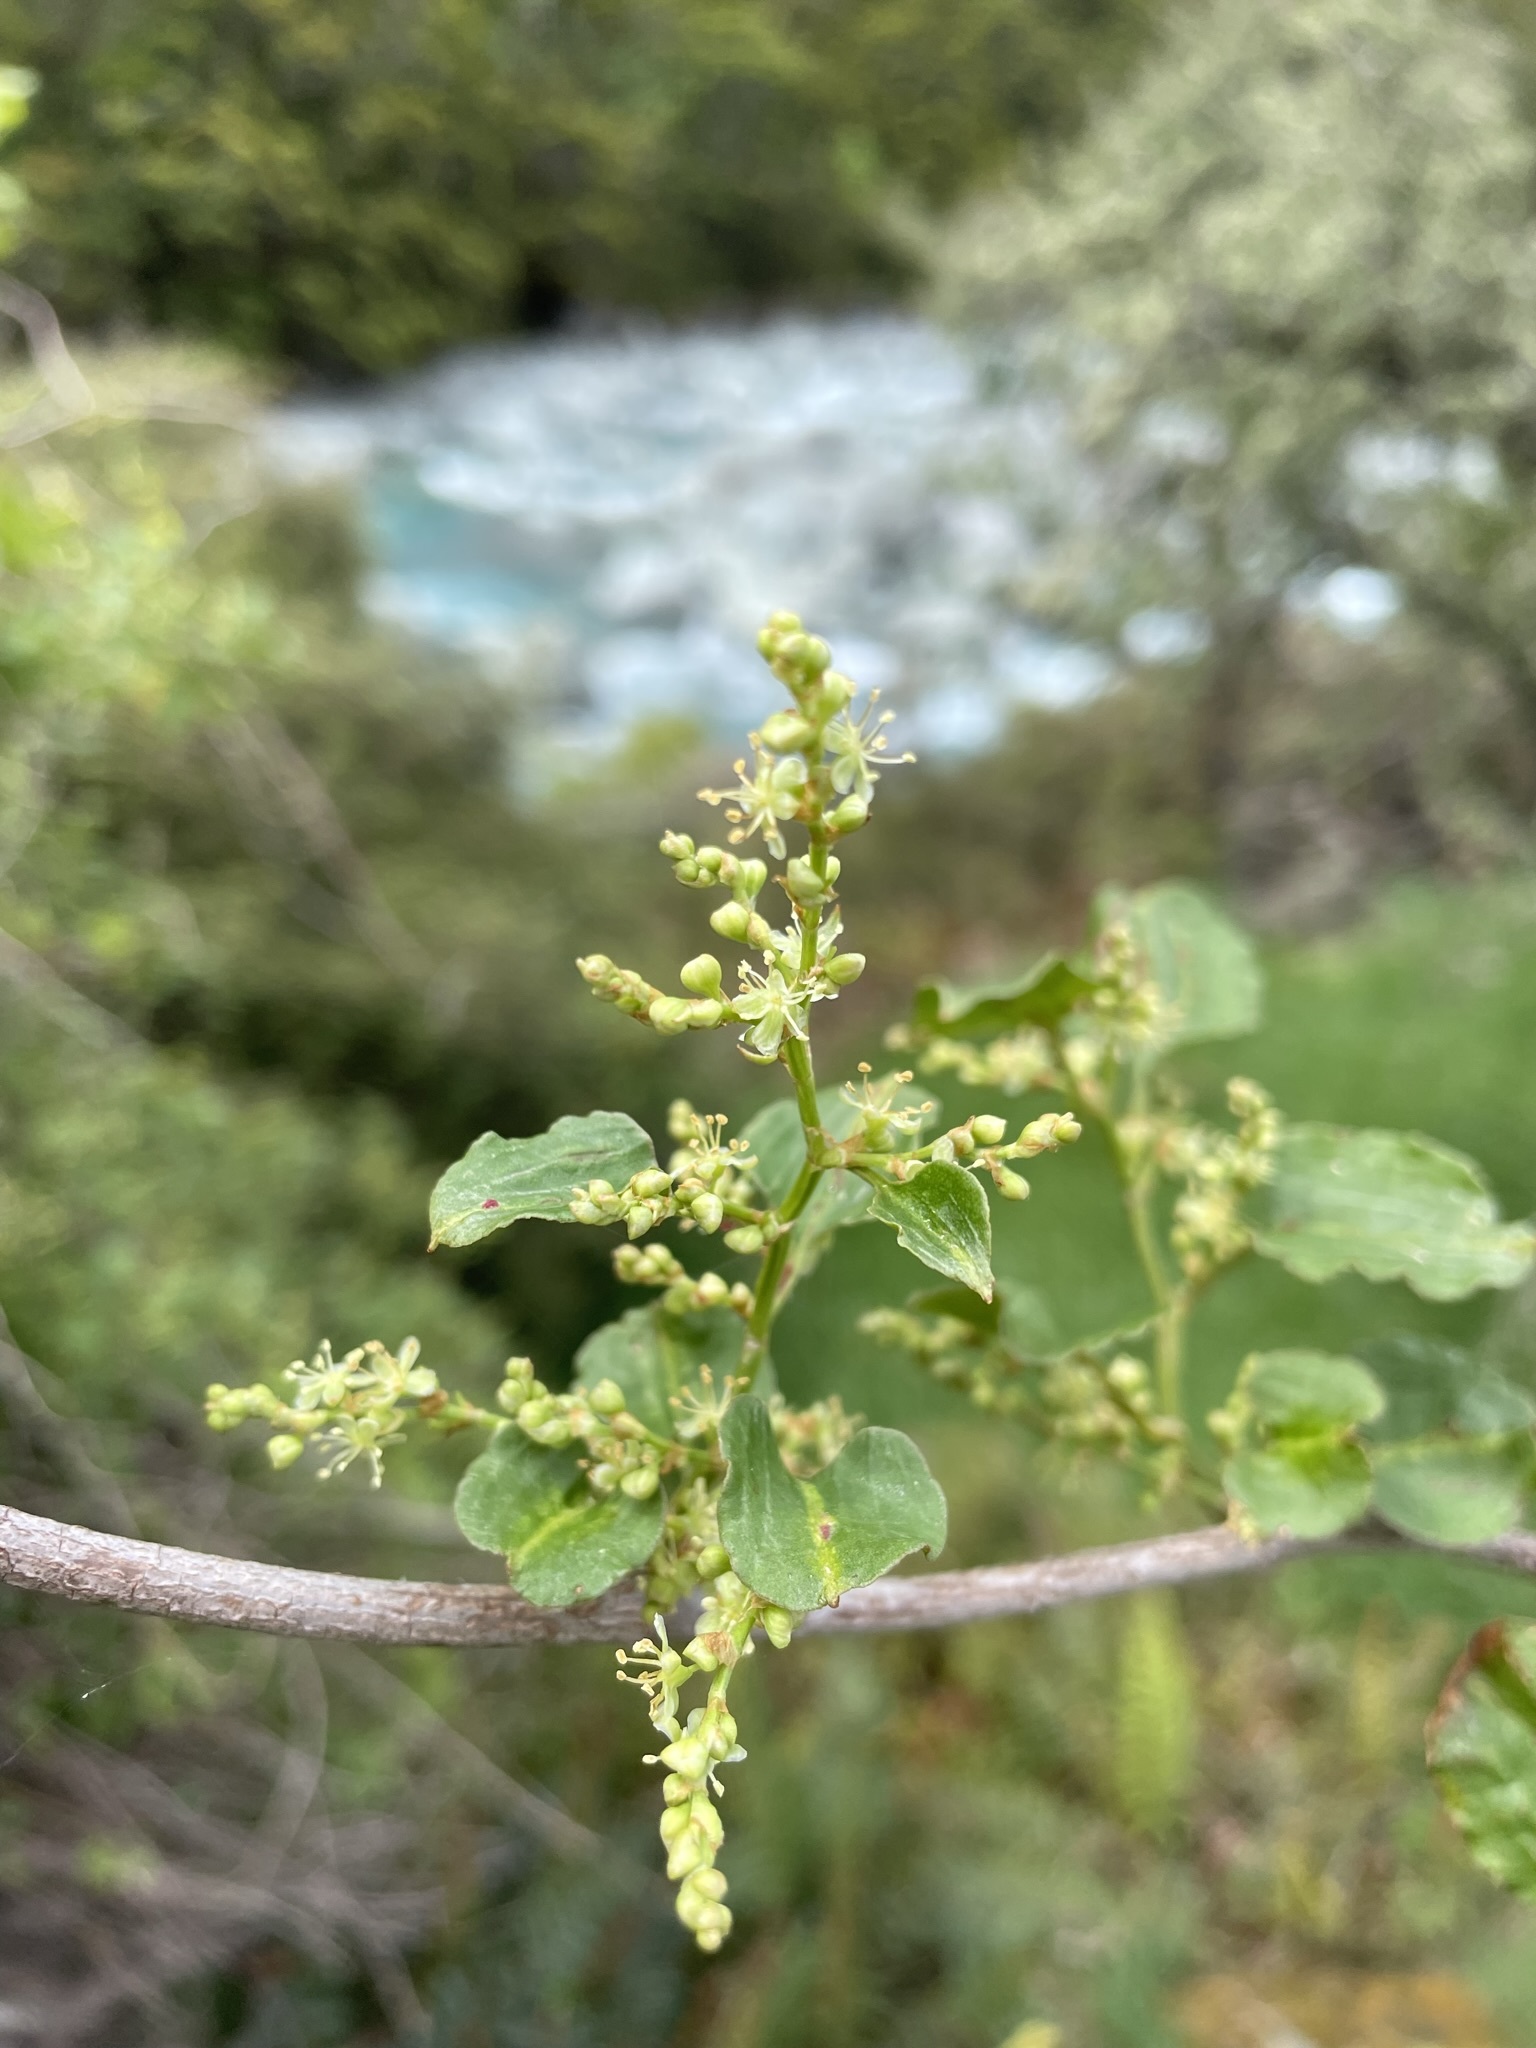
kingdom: Plantae
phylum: Tracheophyta
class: Magnoliopsida
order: Caryophyllales
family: Polygonaceae
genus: Muehlenbeckia
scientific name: Muehlenbeckia australis
